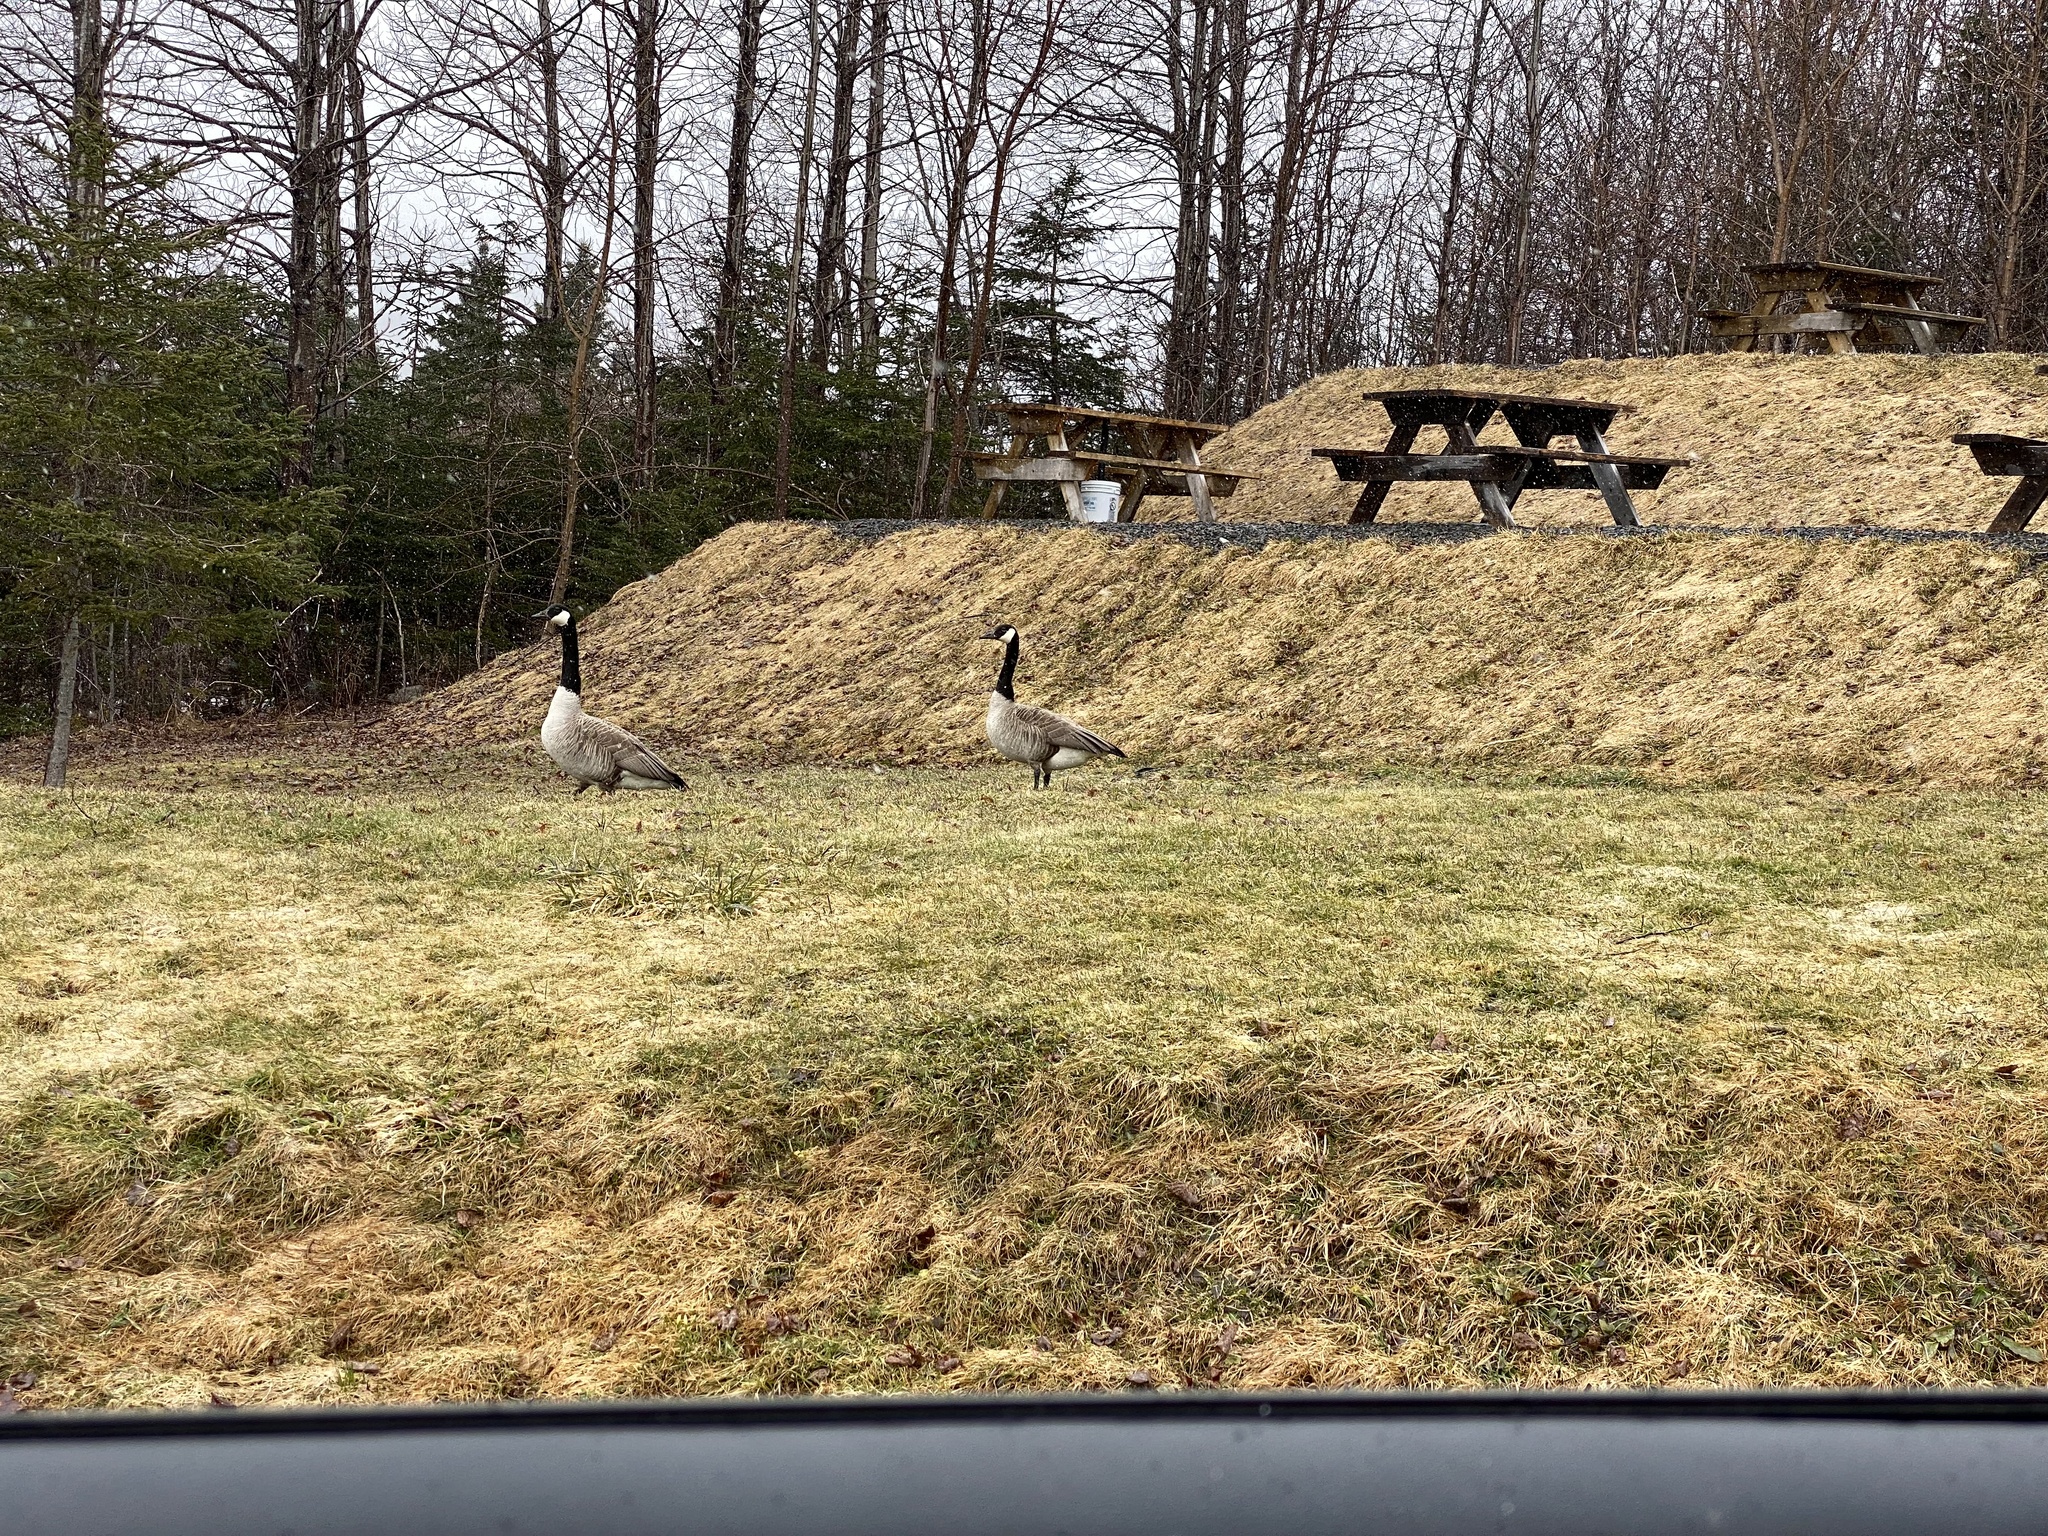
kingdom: Animalia
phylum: Chordata
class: Aves
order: Anseriformes
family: Anatidae
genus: Branta
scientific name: Branta canadensis
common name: Canada goose
